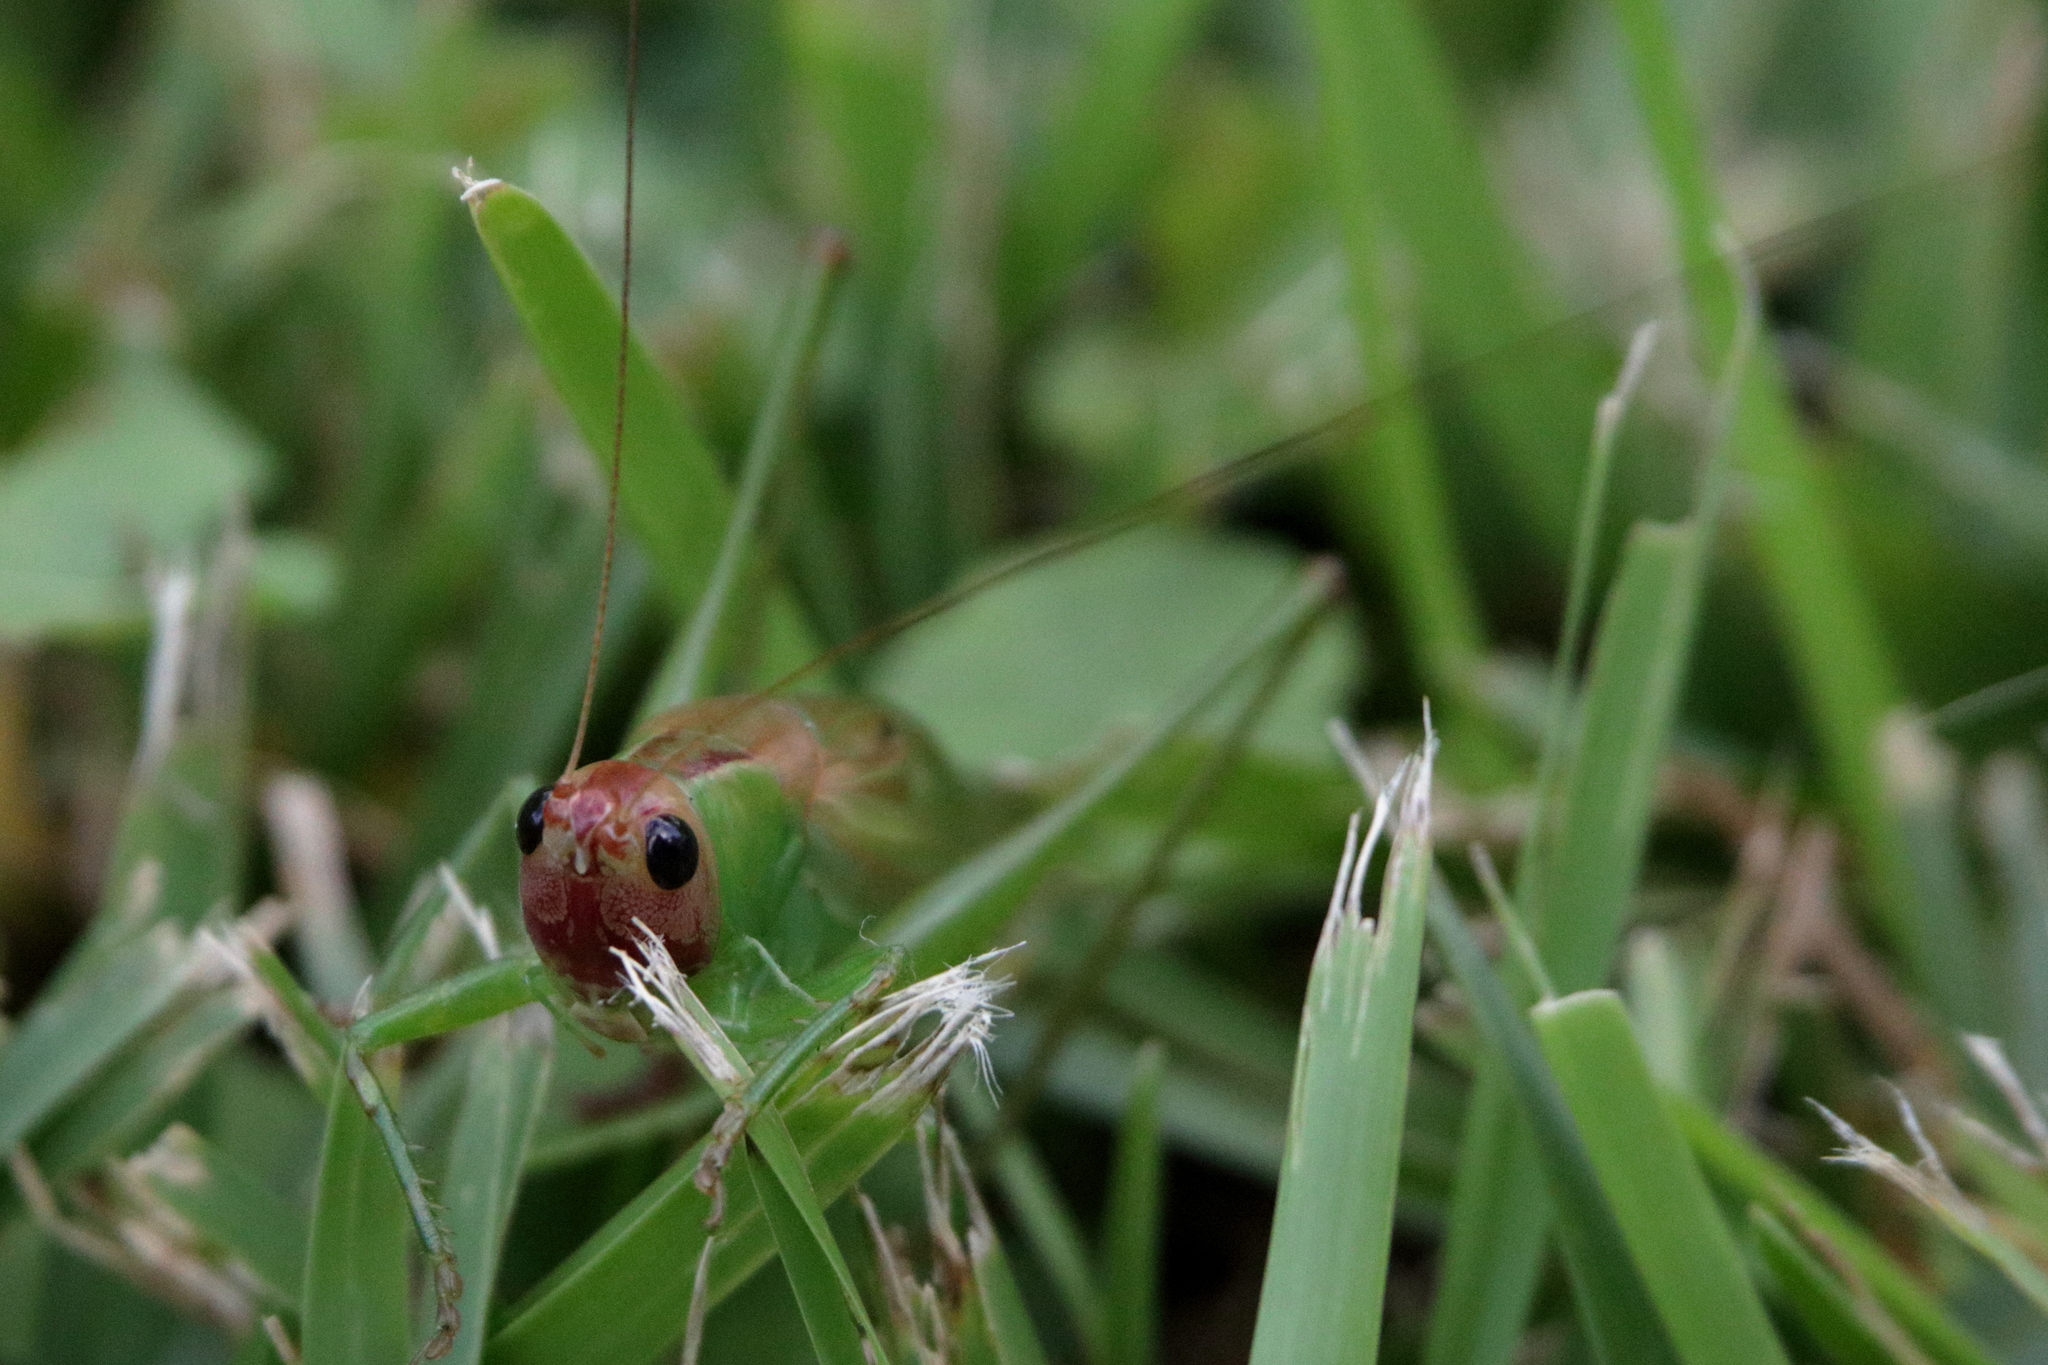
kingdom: Animalia
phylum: Arthropoda
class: Insecta
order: Orthoptera
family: Tettigoniidae
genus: Orchelimum
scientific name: Orchelimum erythrocephalum
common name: Red-headed meadow katydid
